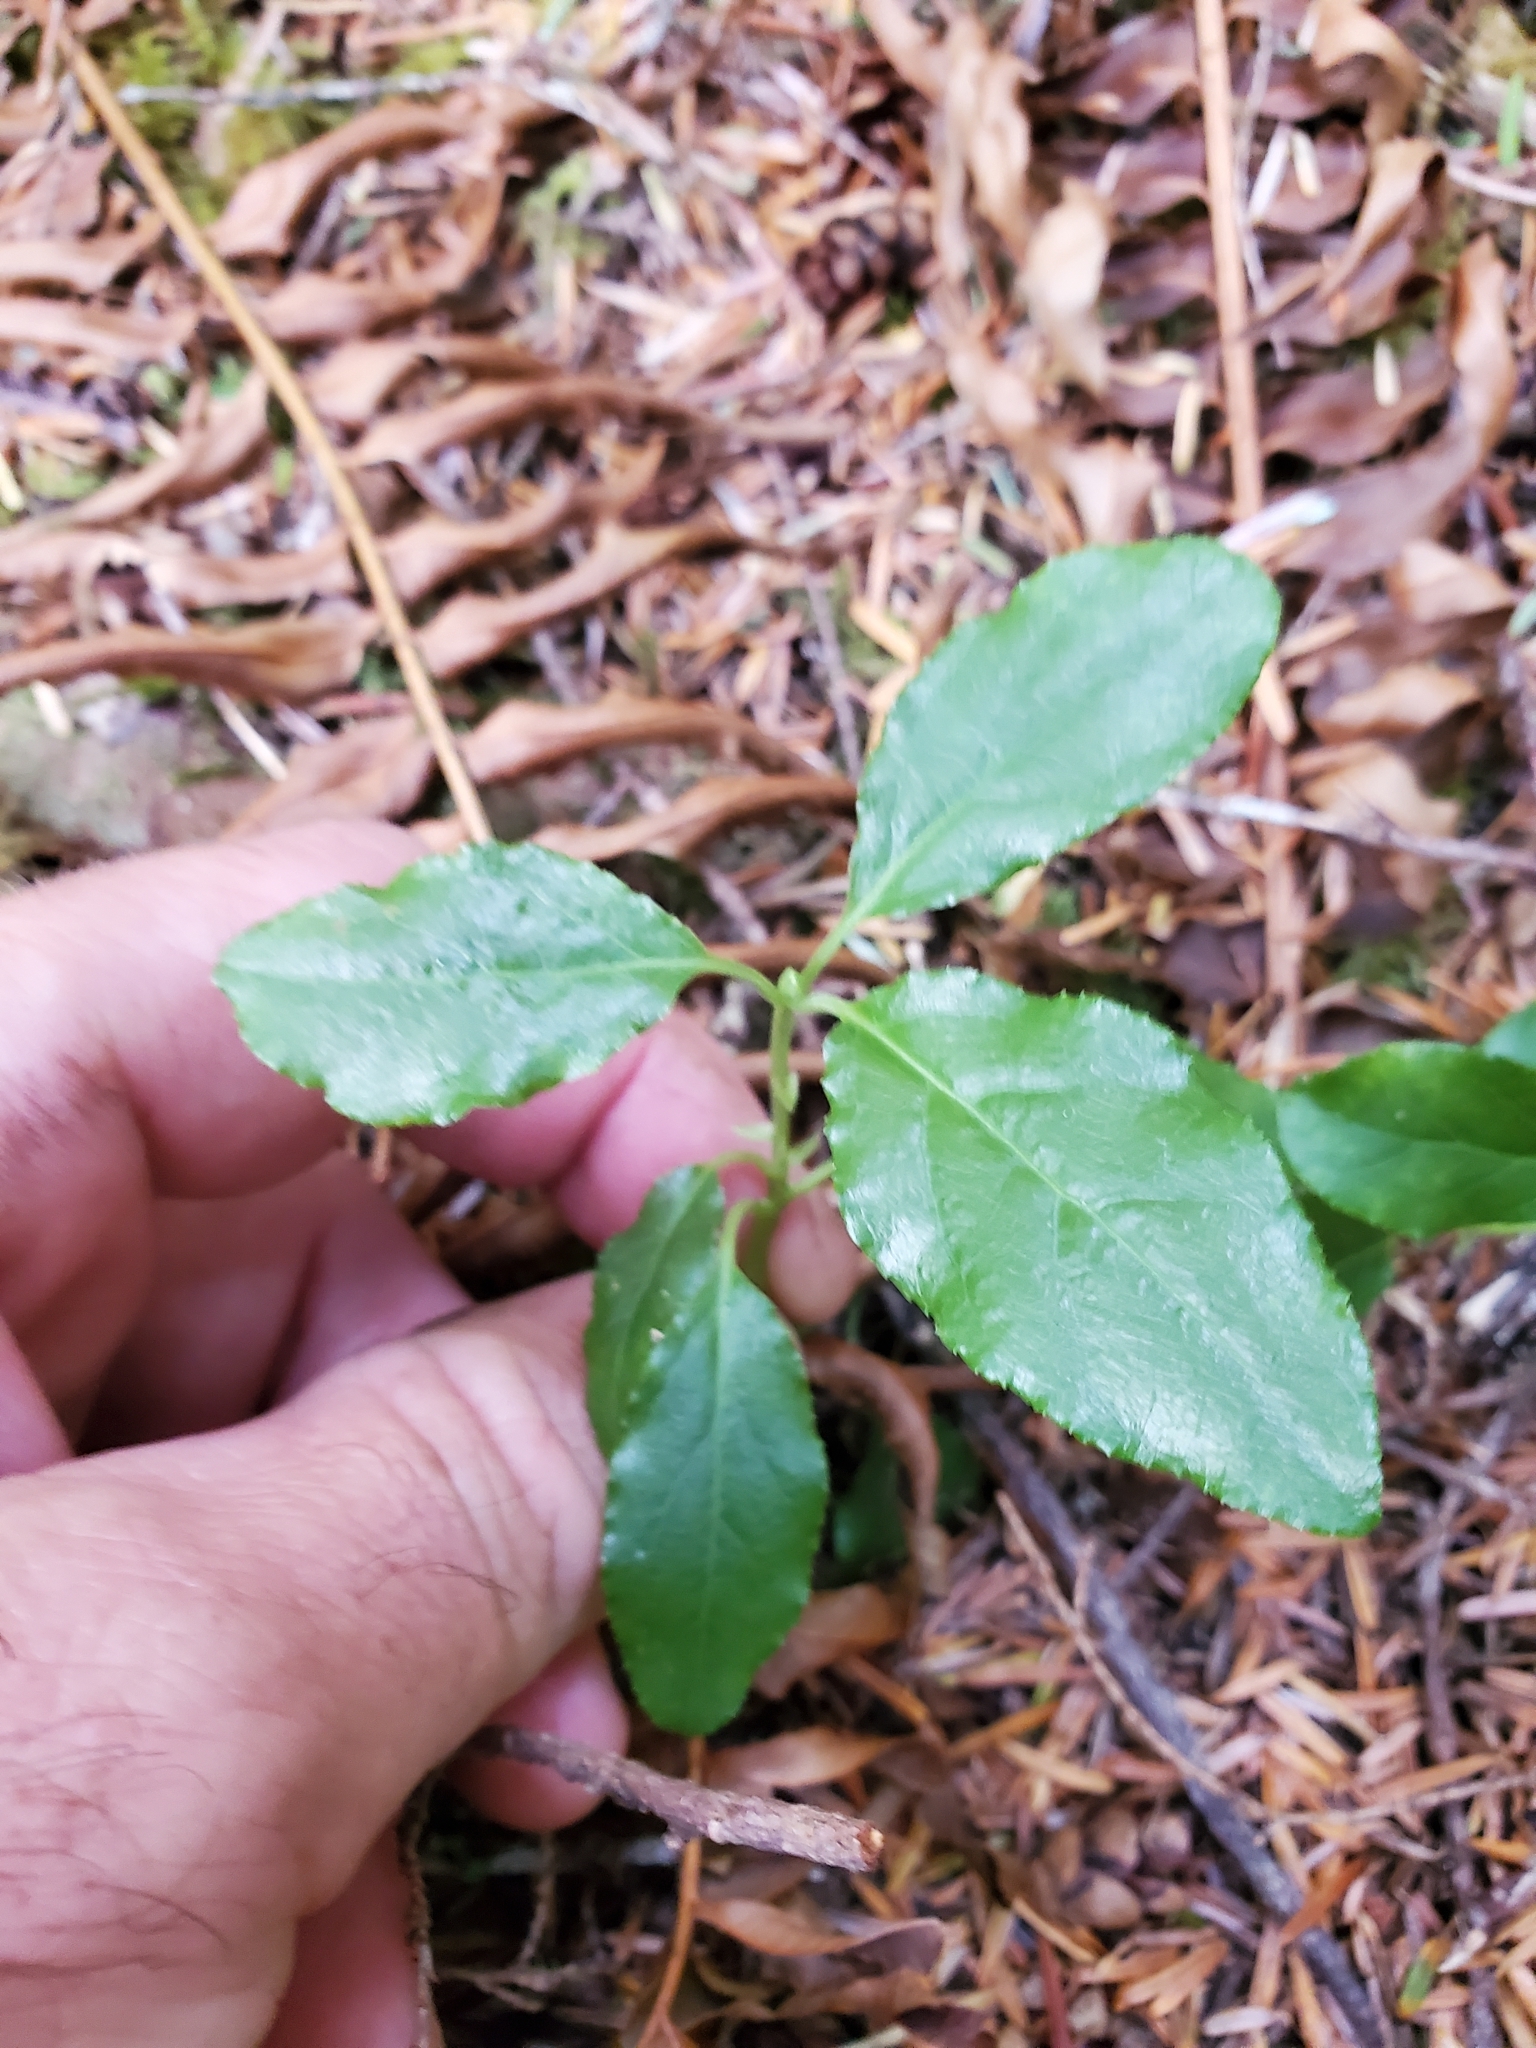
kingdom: Plantae
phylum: Tracheophyta
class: Magnoliopsida
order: Ericales
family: Ericaceae
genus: Orthilia
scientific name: Orthilia secunda
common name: One-sided orthilia
